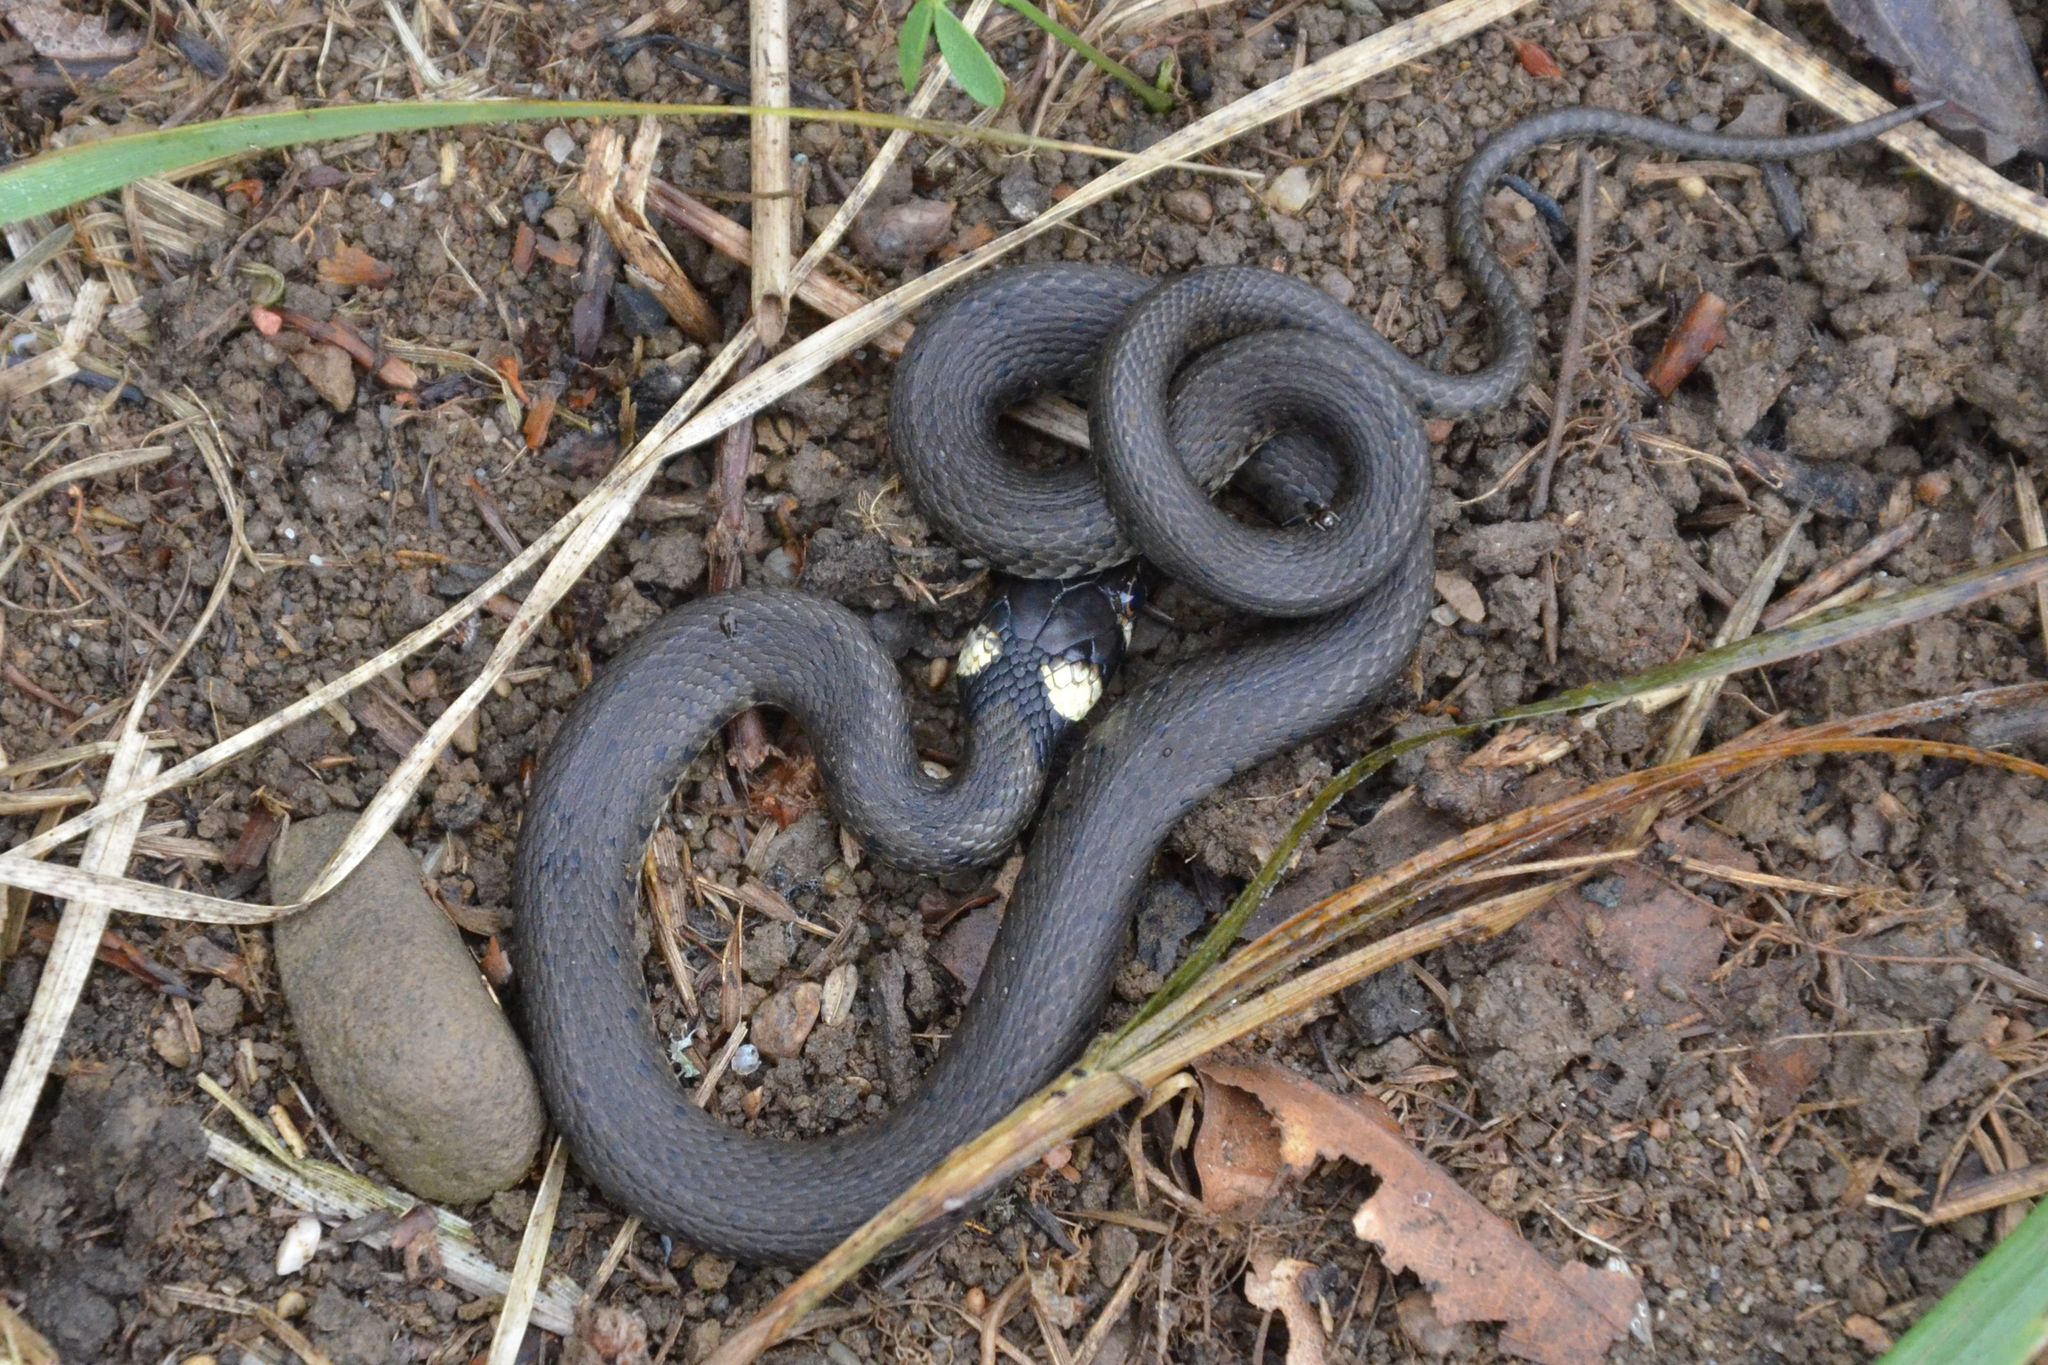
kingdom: Animalia
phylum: Chordata
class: Squamata
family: Colubridae
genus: Natrix
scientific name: Natrix helvetica
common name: Banded grass snake
